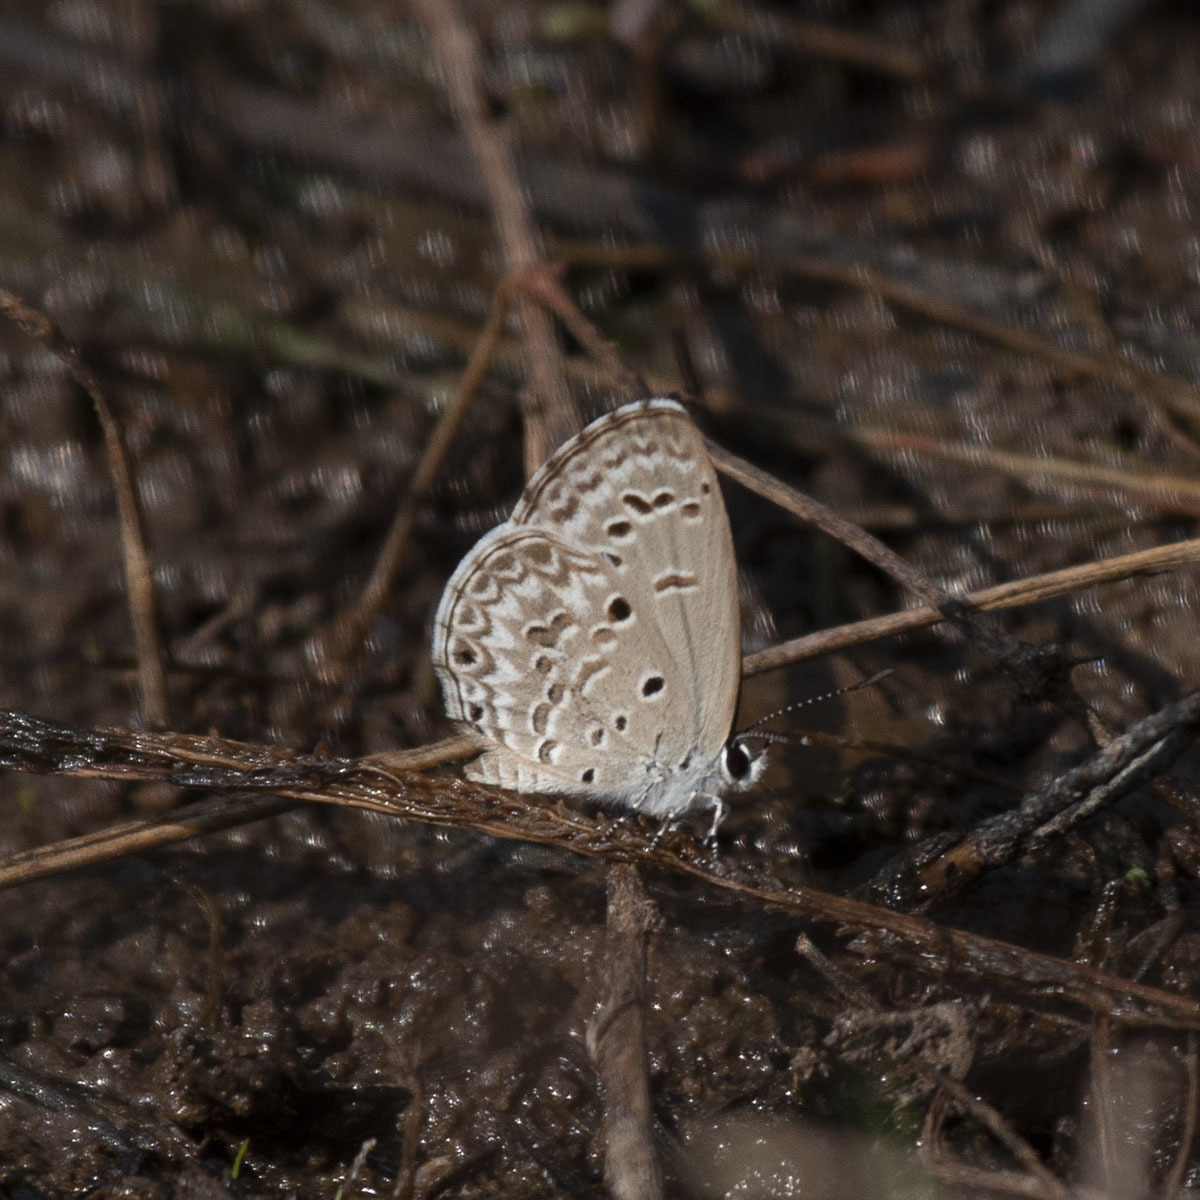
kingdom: Animalia
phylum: Arthropoda
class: Insecta
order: Lepidoptera
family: Lycaenidae
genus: Chilades
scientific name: Chilades laius
